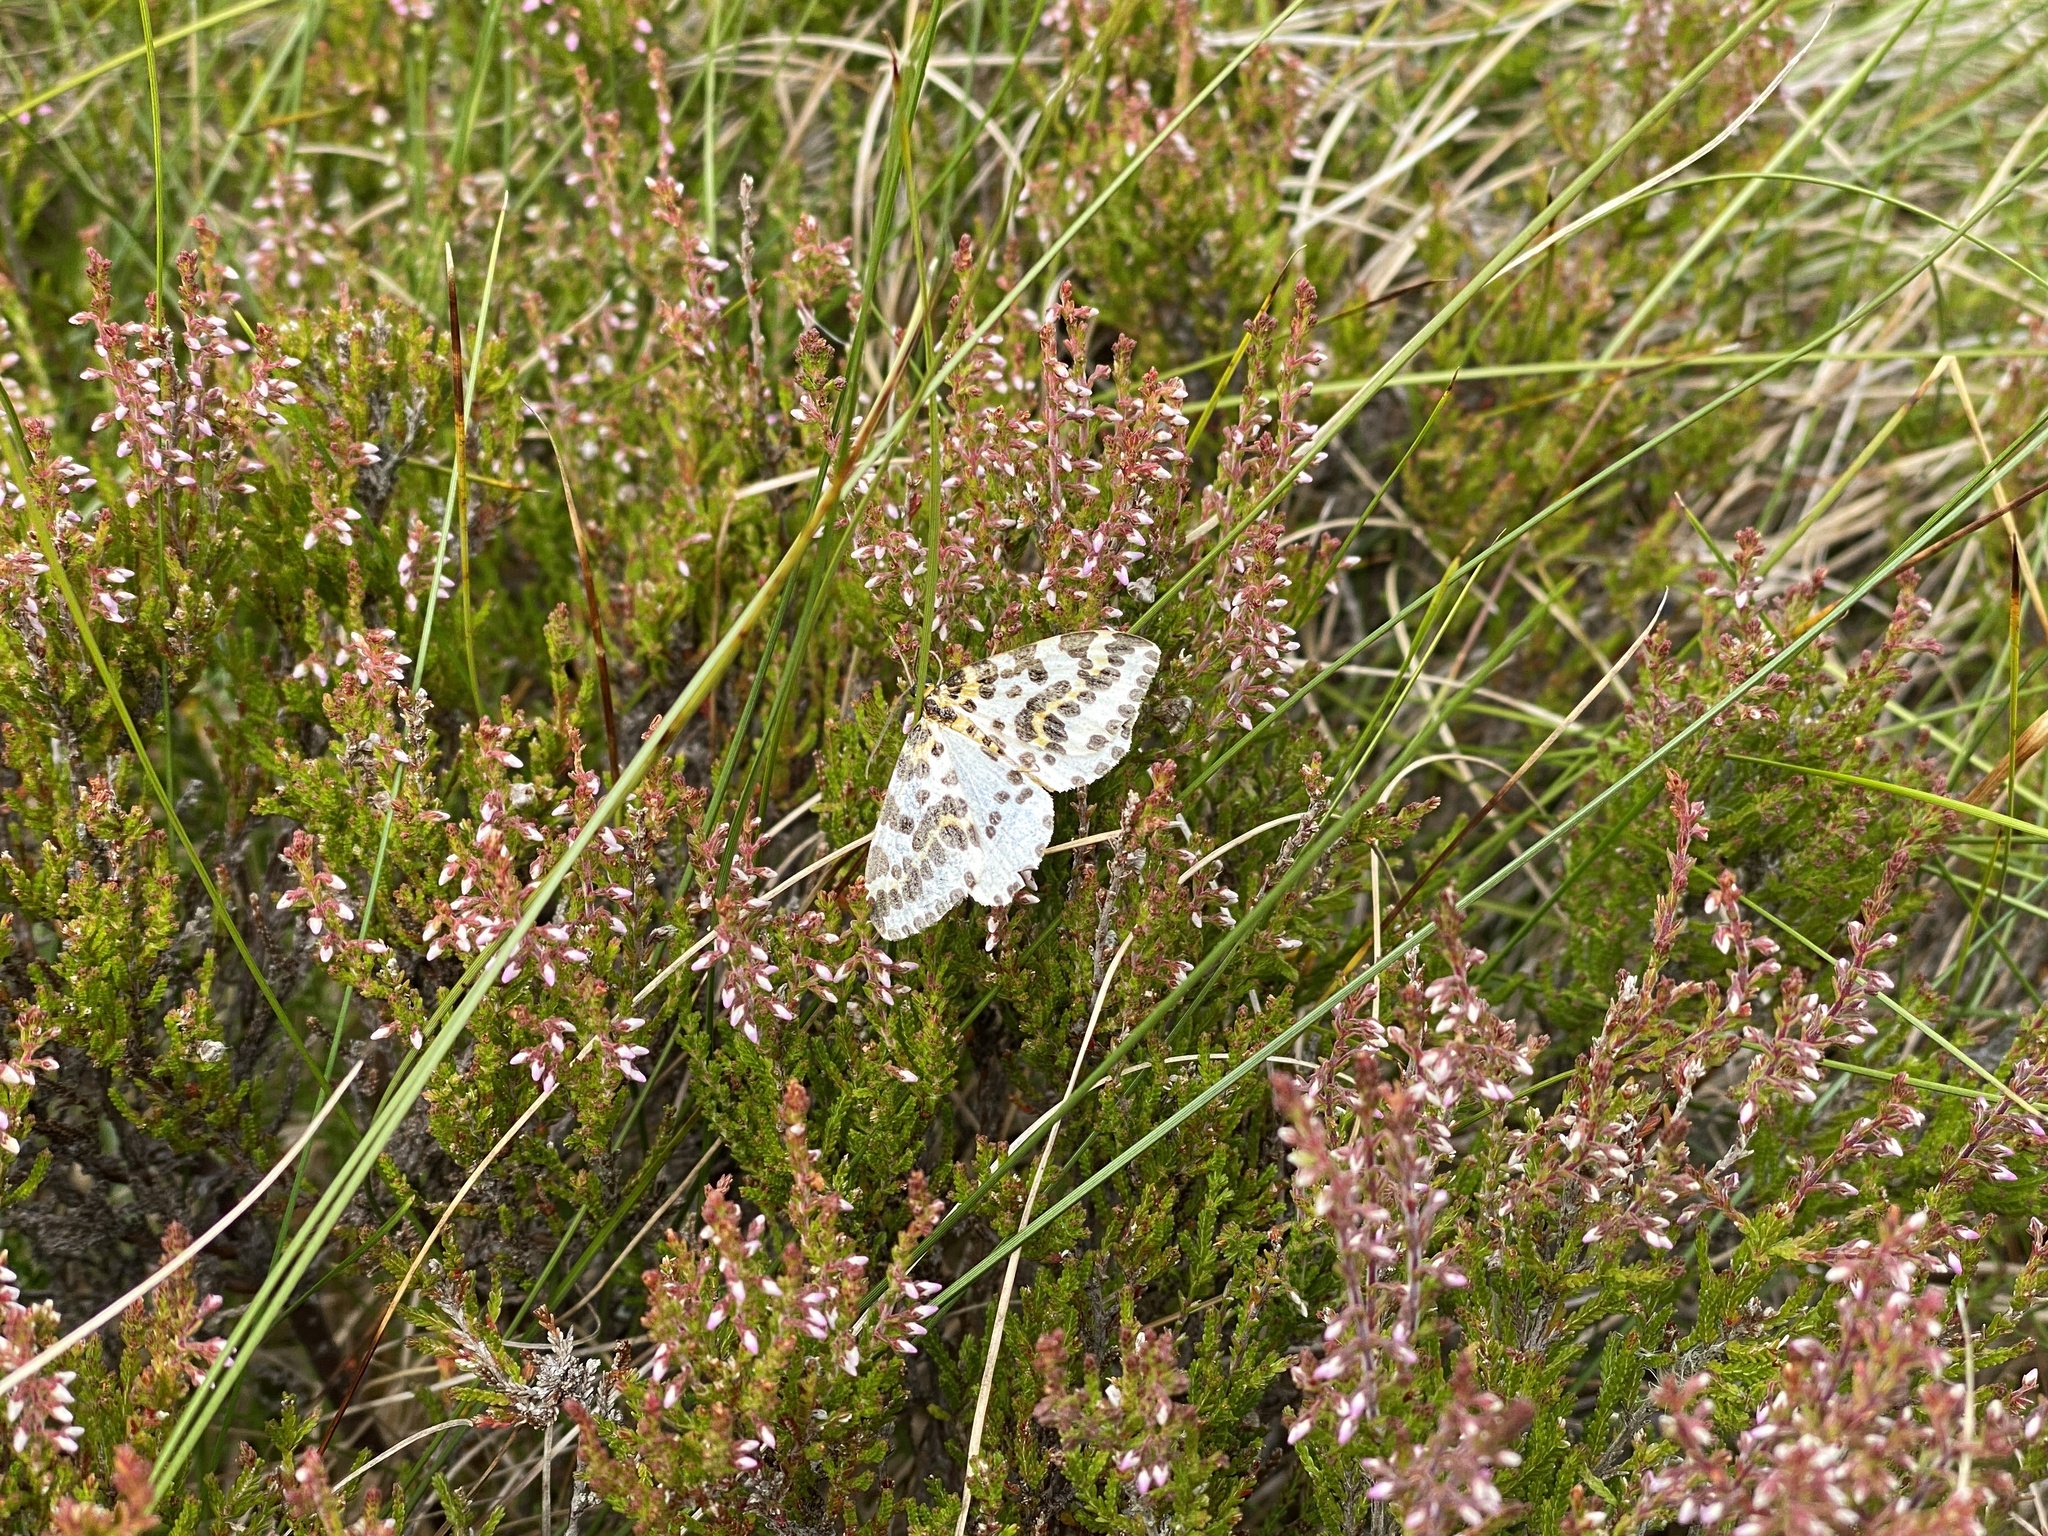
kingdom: Animalia
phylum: Arthropoda
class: Insecta
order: Lepidoptera
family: Geometridae
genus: Abraxas
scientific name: Abraxas grossulariata
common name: Magpie
